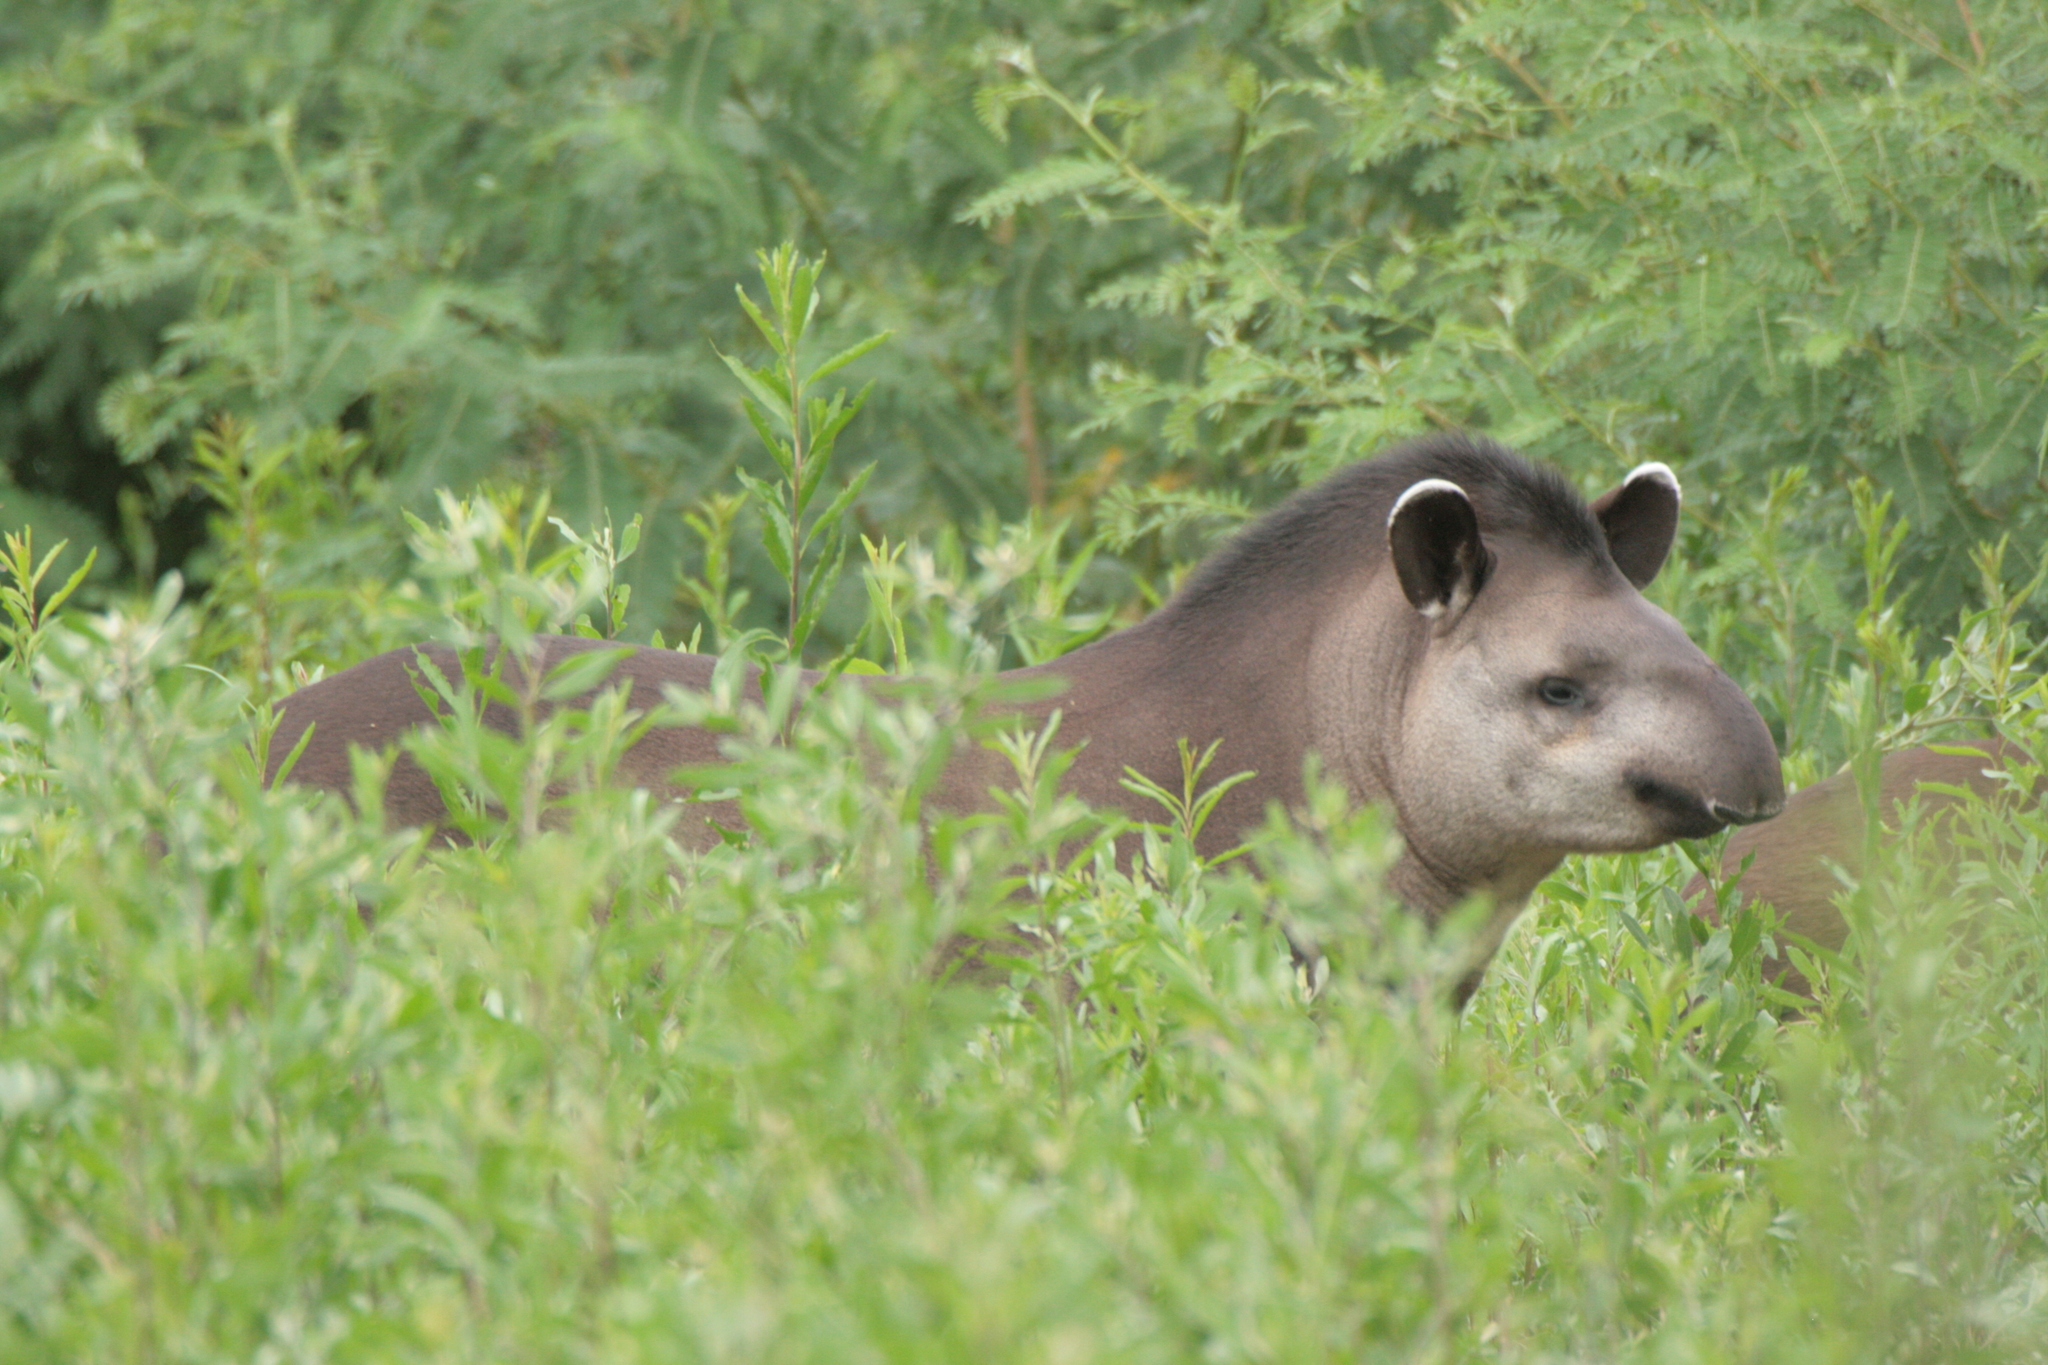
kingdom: Animalia
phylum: Chordata
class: Mammalia
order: Perissodactyla
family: Tapiridae
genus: Tapirus
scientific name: Tapirus terrestris
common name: Brazilian tapir
